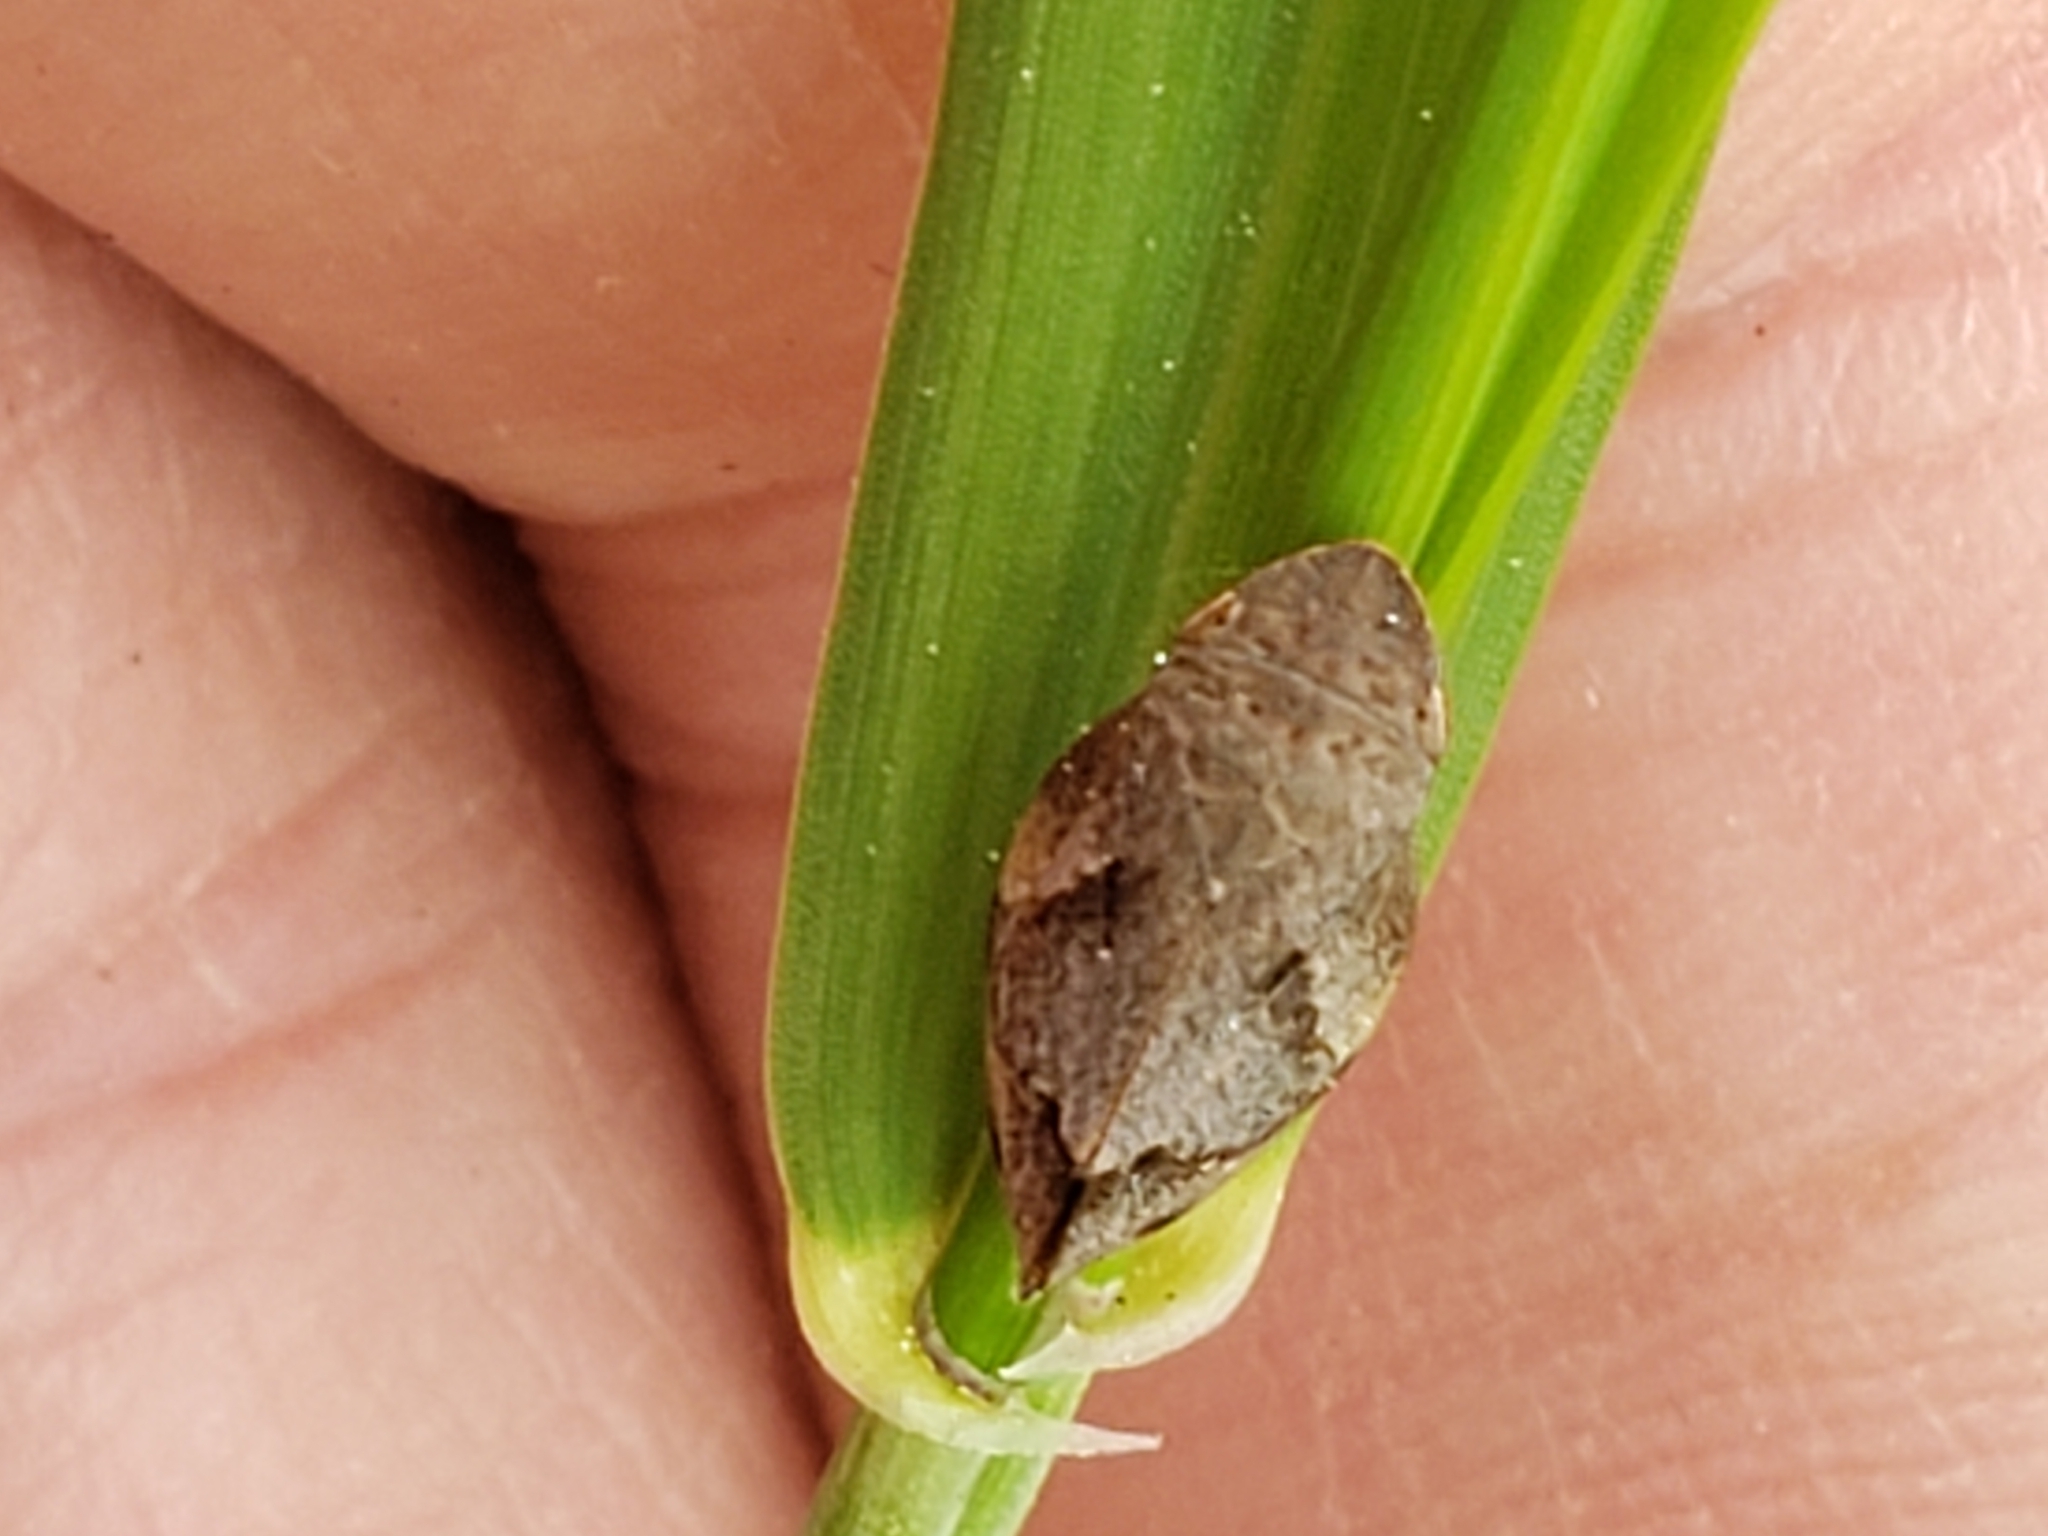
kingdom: Animalia
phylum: Arthropoda
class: Insecta
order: Hemiptera
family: Aphrophoridae
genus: Lepyronia
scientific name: Lepyronia quadrangularis
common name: Diamond-backed spittlebug
